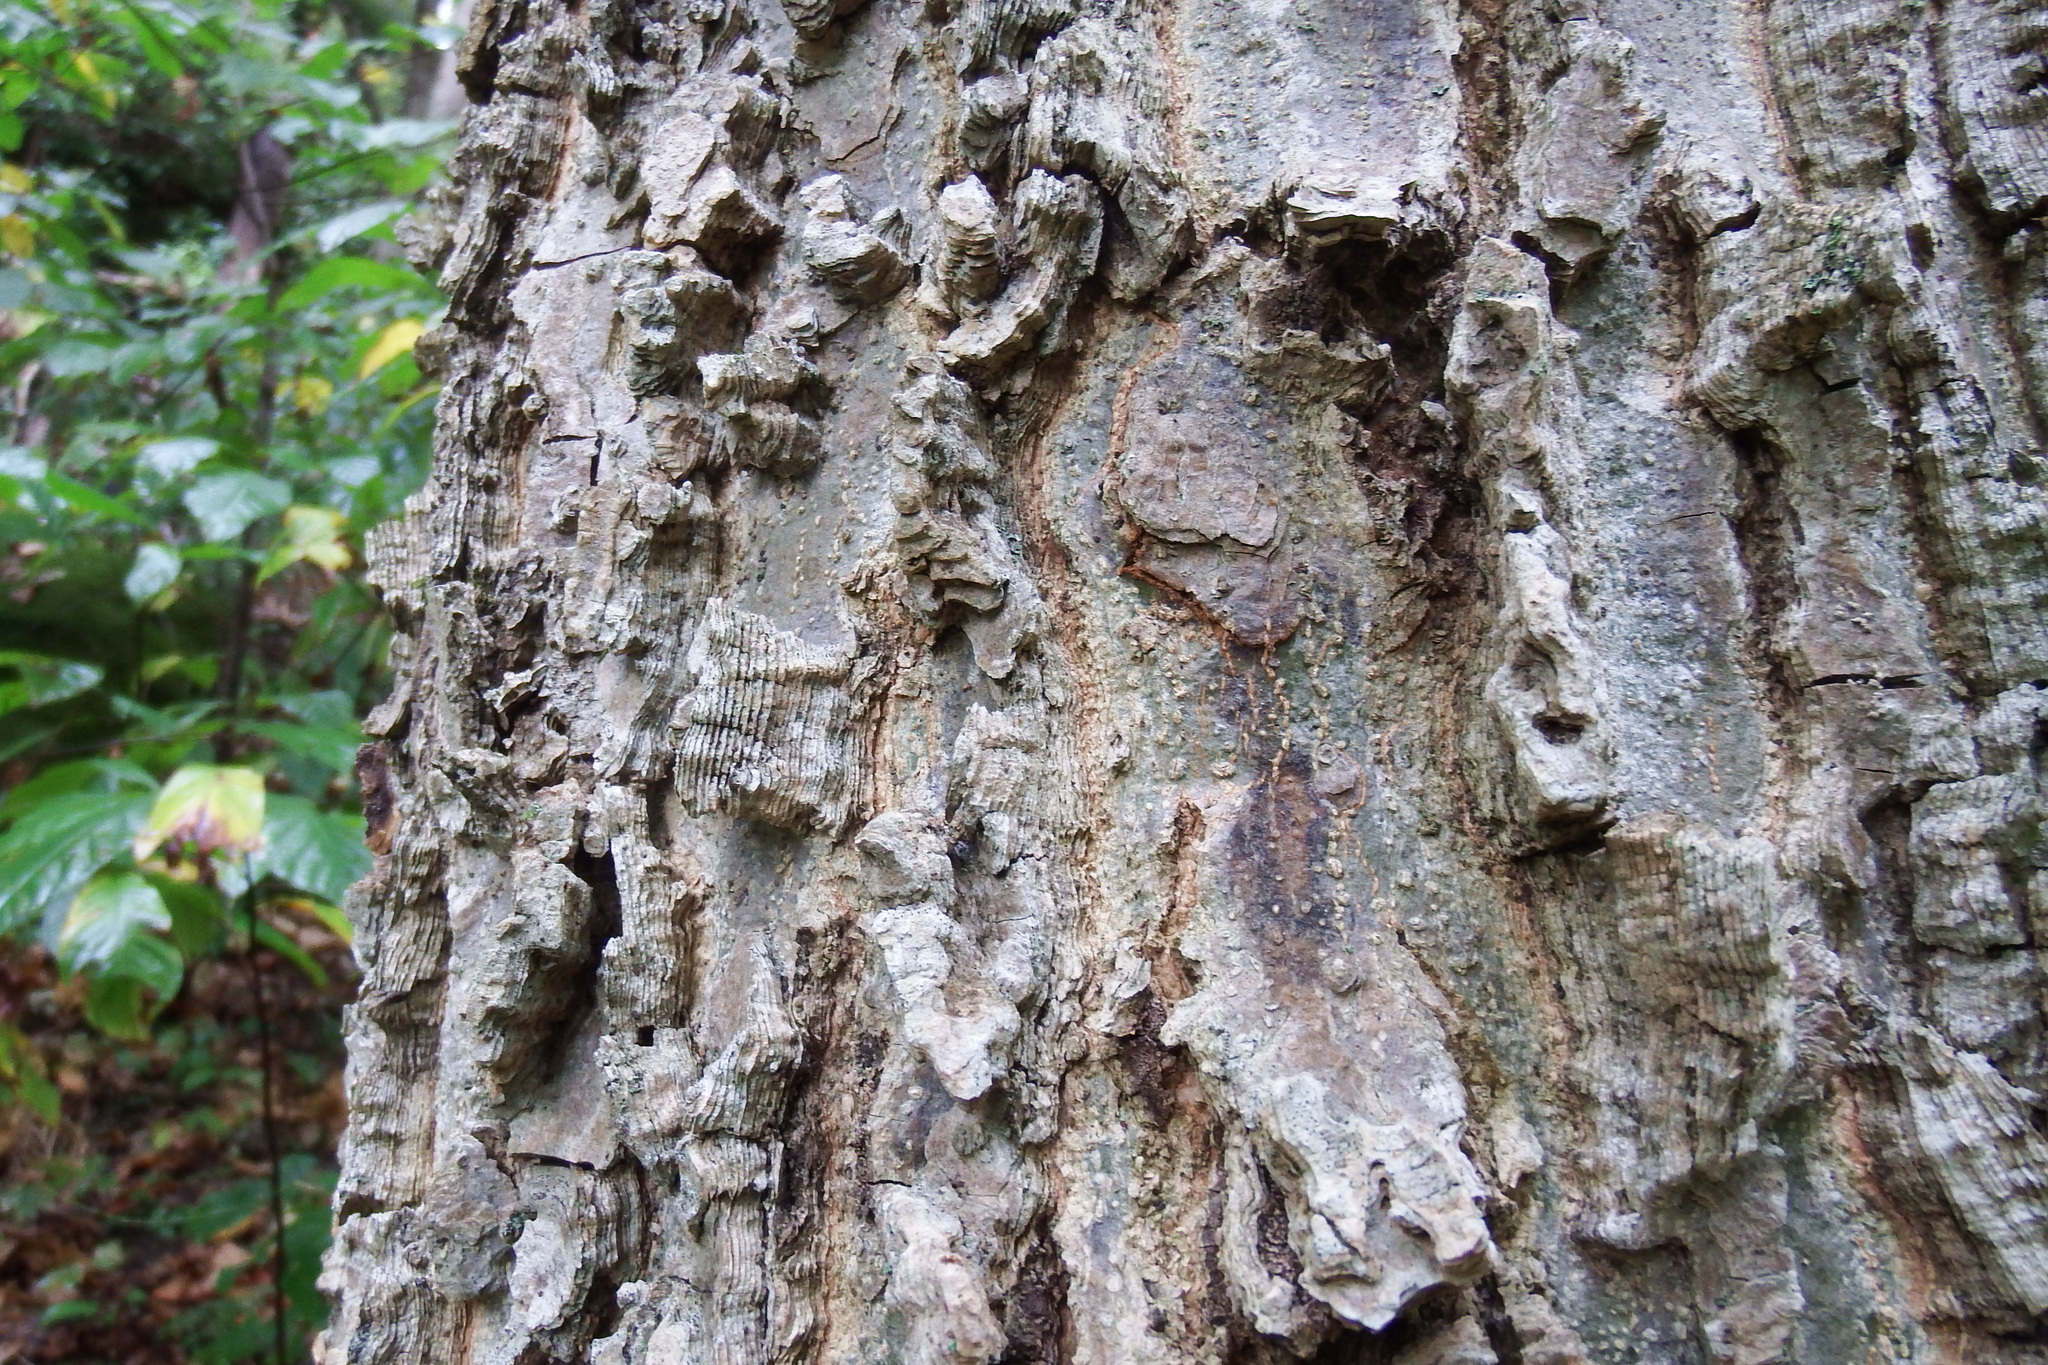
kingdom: Plantae
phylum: Tracheophyta
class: Magnoliopsida
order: Rosales
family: Cannabaceae
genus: Celtis
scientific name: Celtis occidentalis
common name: Common hackberry
